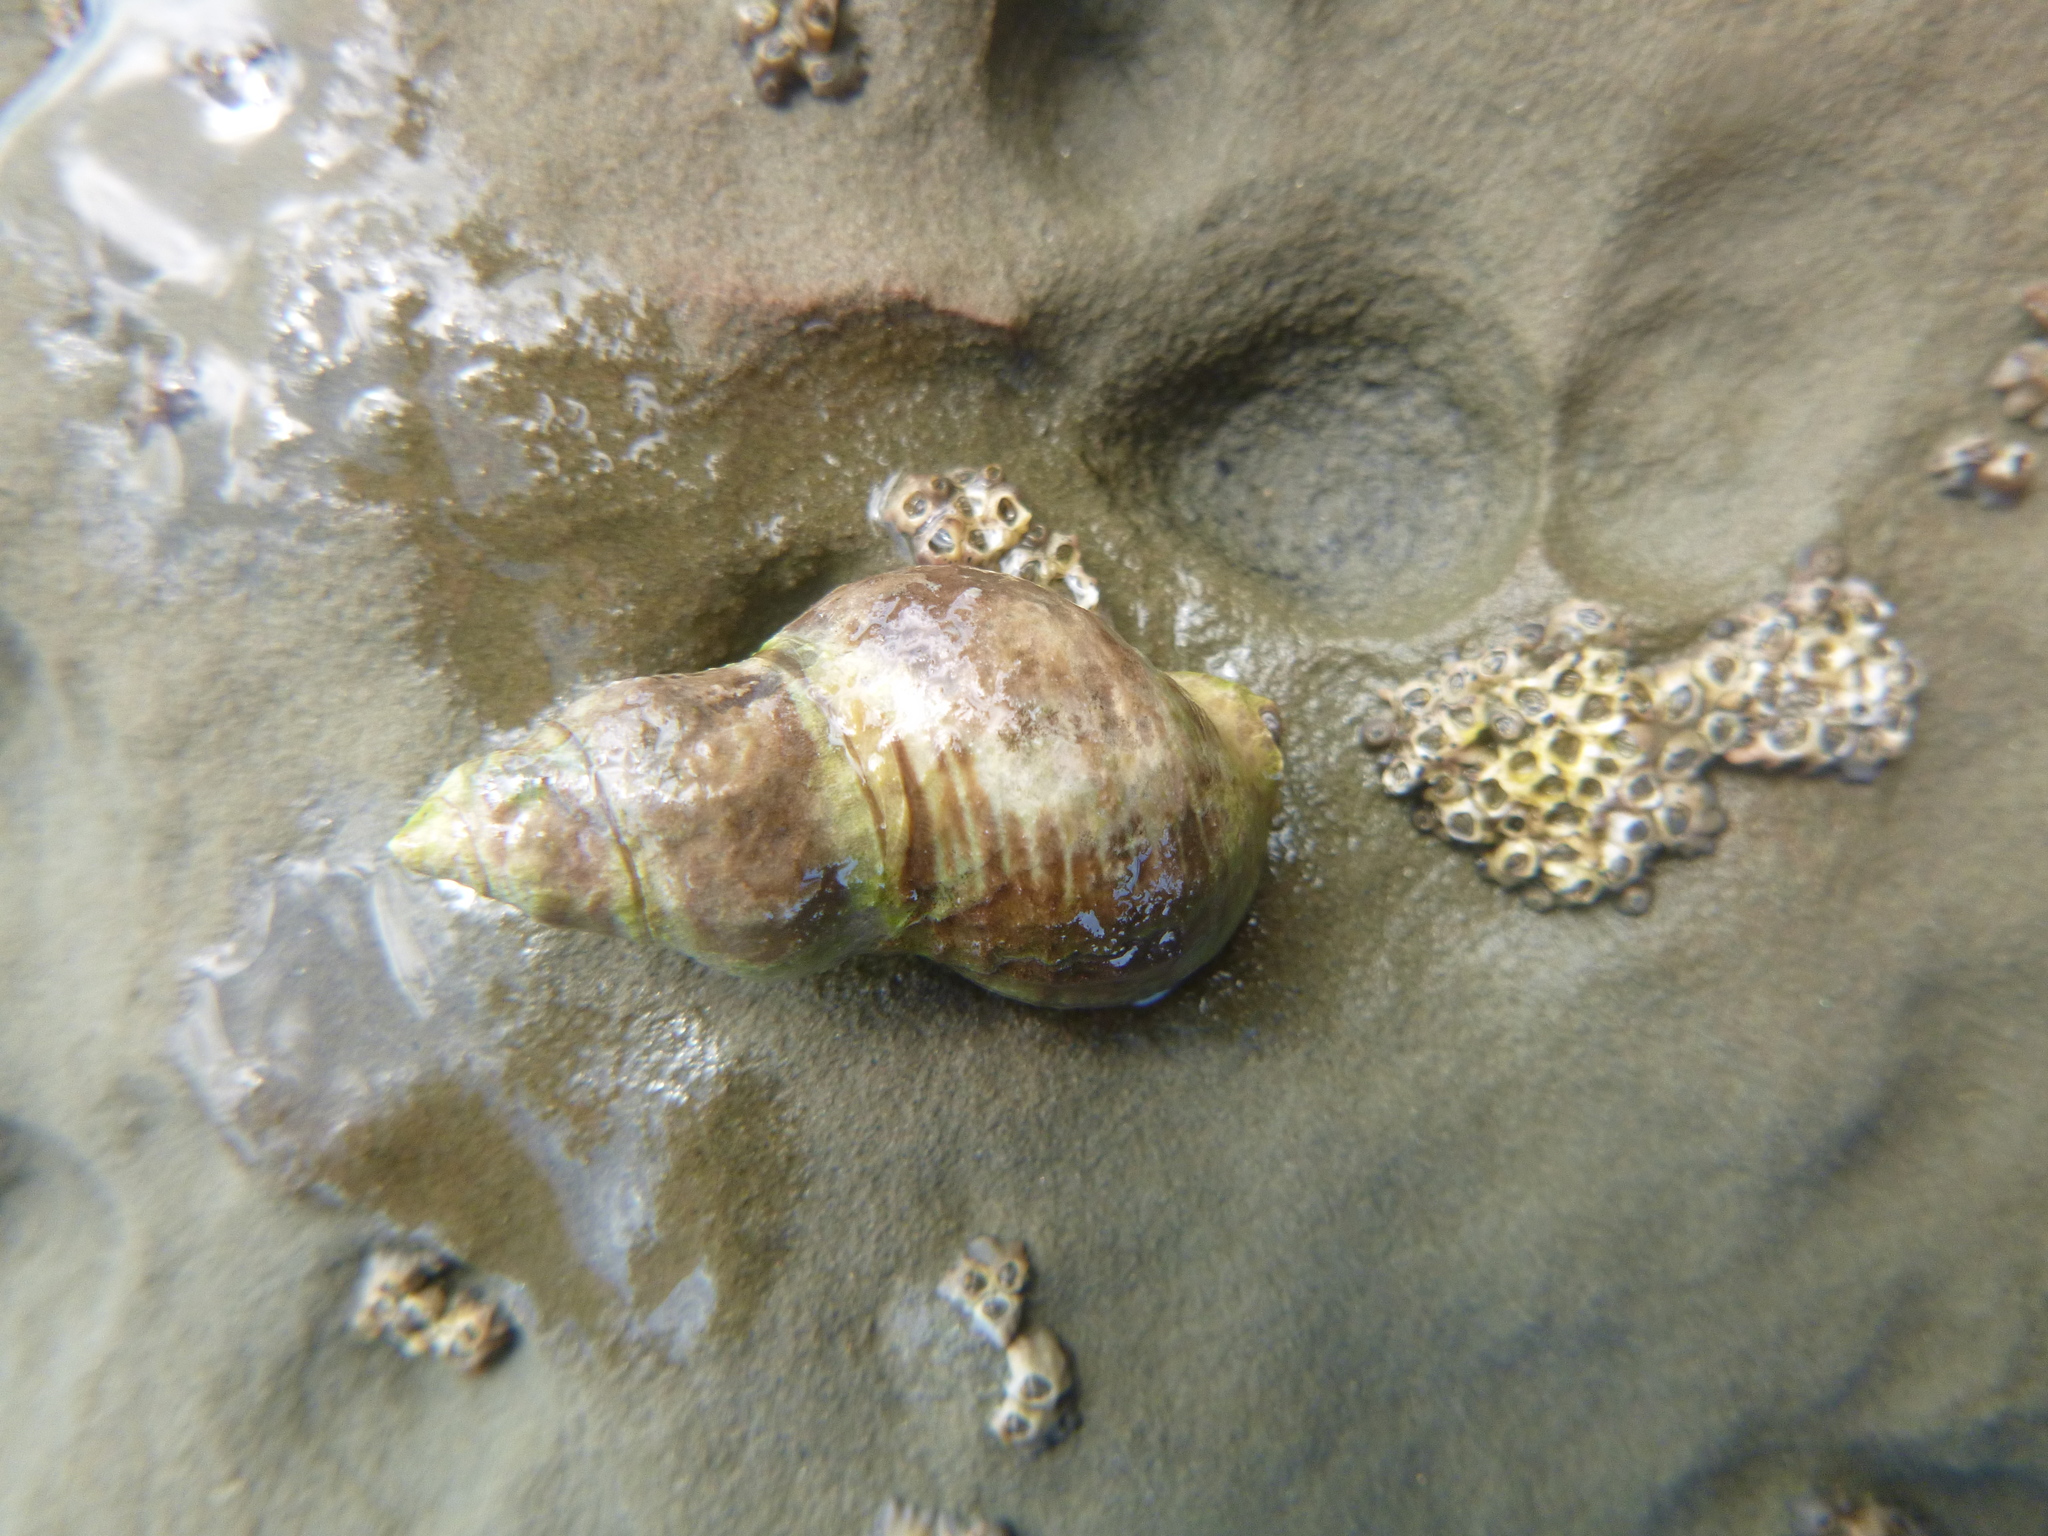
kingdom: Animalia
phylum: Mollusca
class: Gastropoda
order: Neogastropoda
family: Cominellidae
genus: Cominella
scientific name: Cominella virgata
